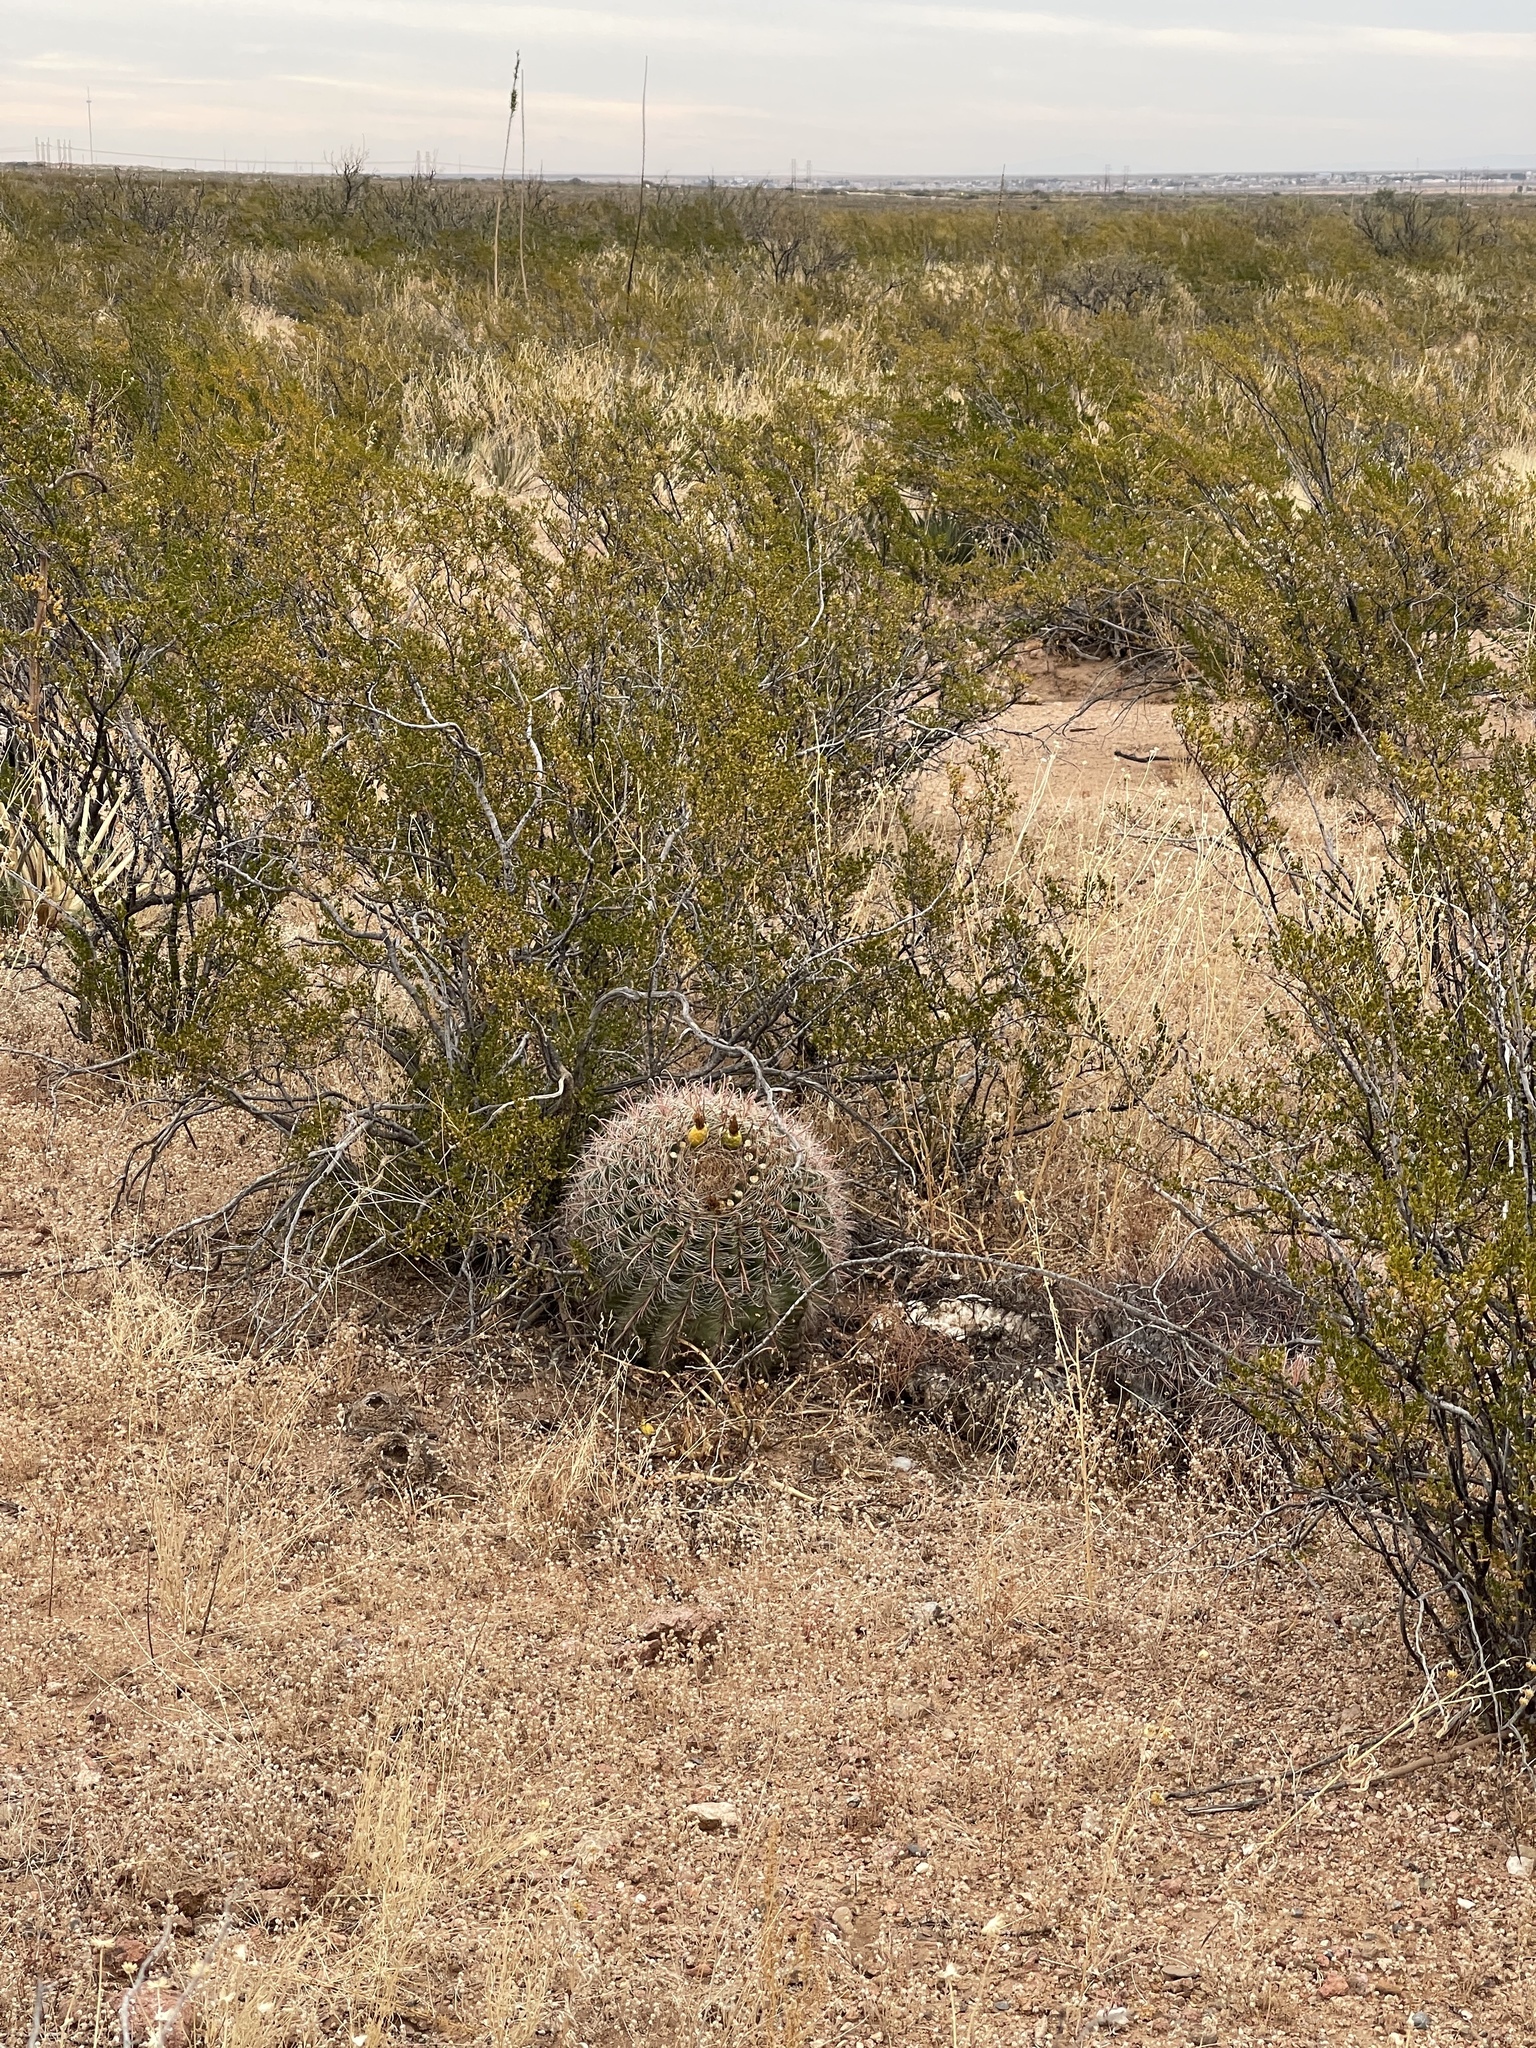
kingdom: Plantae
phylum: Tracheophyta
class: Magnoliopsida
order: Caryophyllales
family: Cactaceae
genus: Ferocactus
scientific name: Ferocactus wislizeni
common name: Candy barrel cactus
